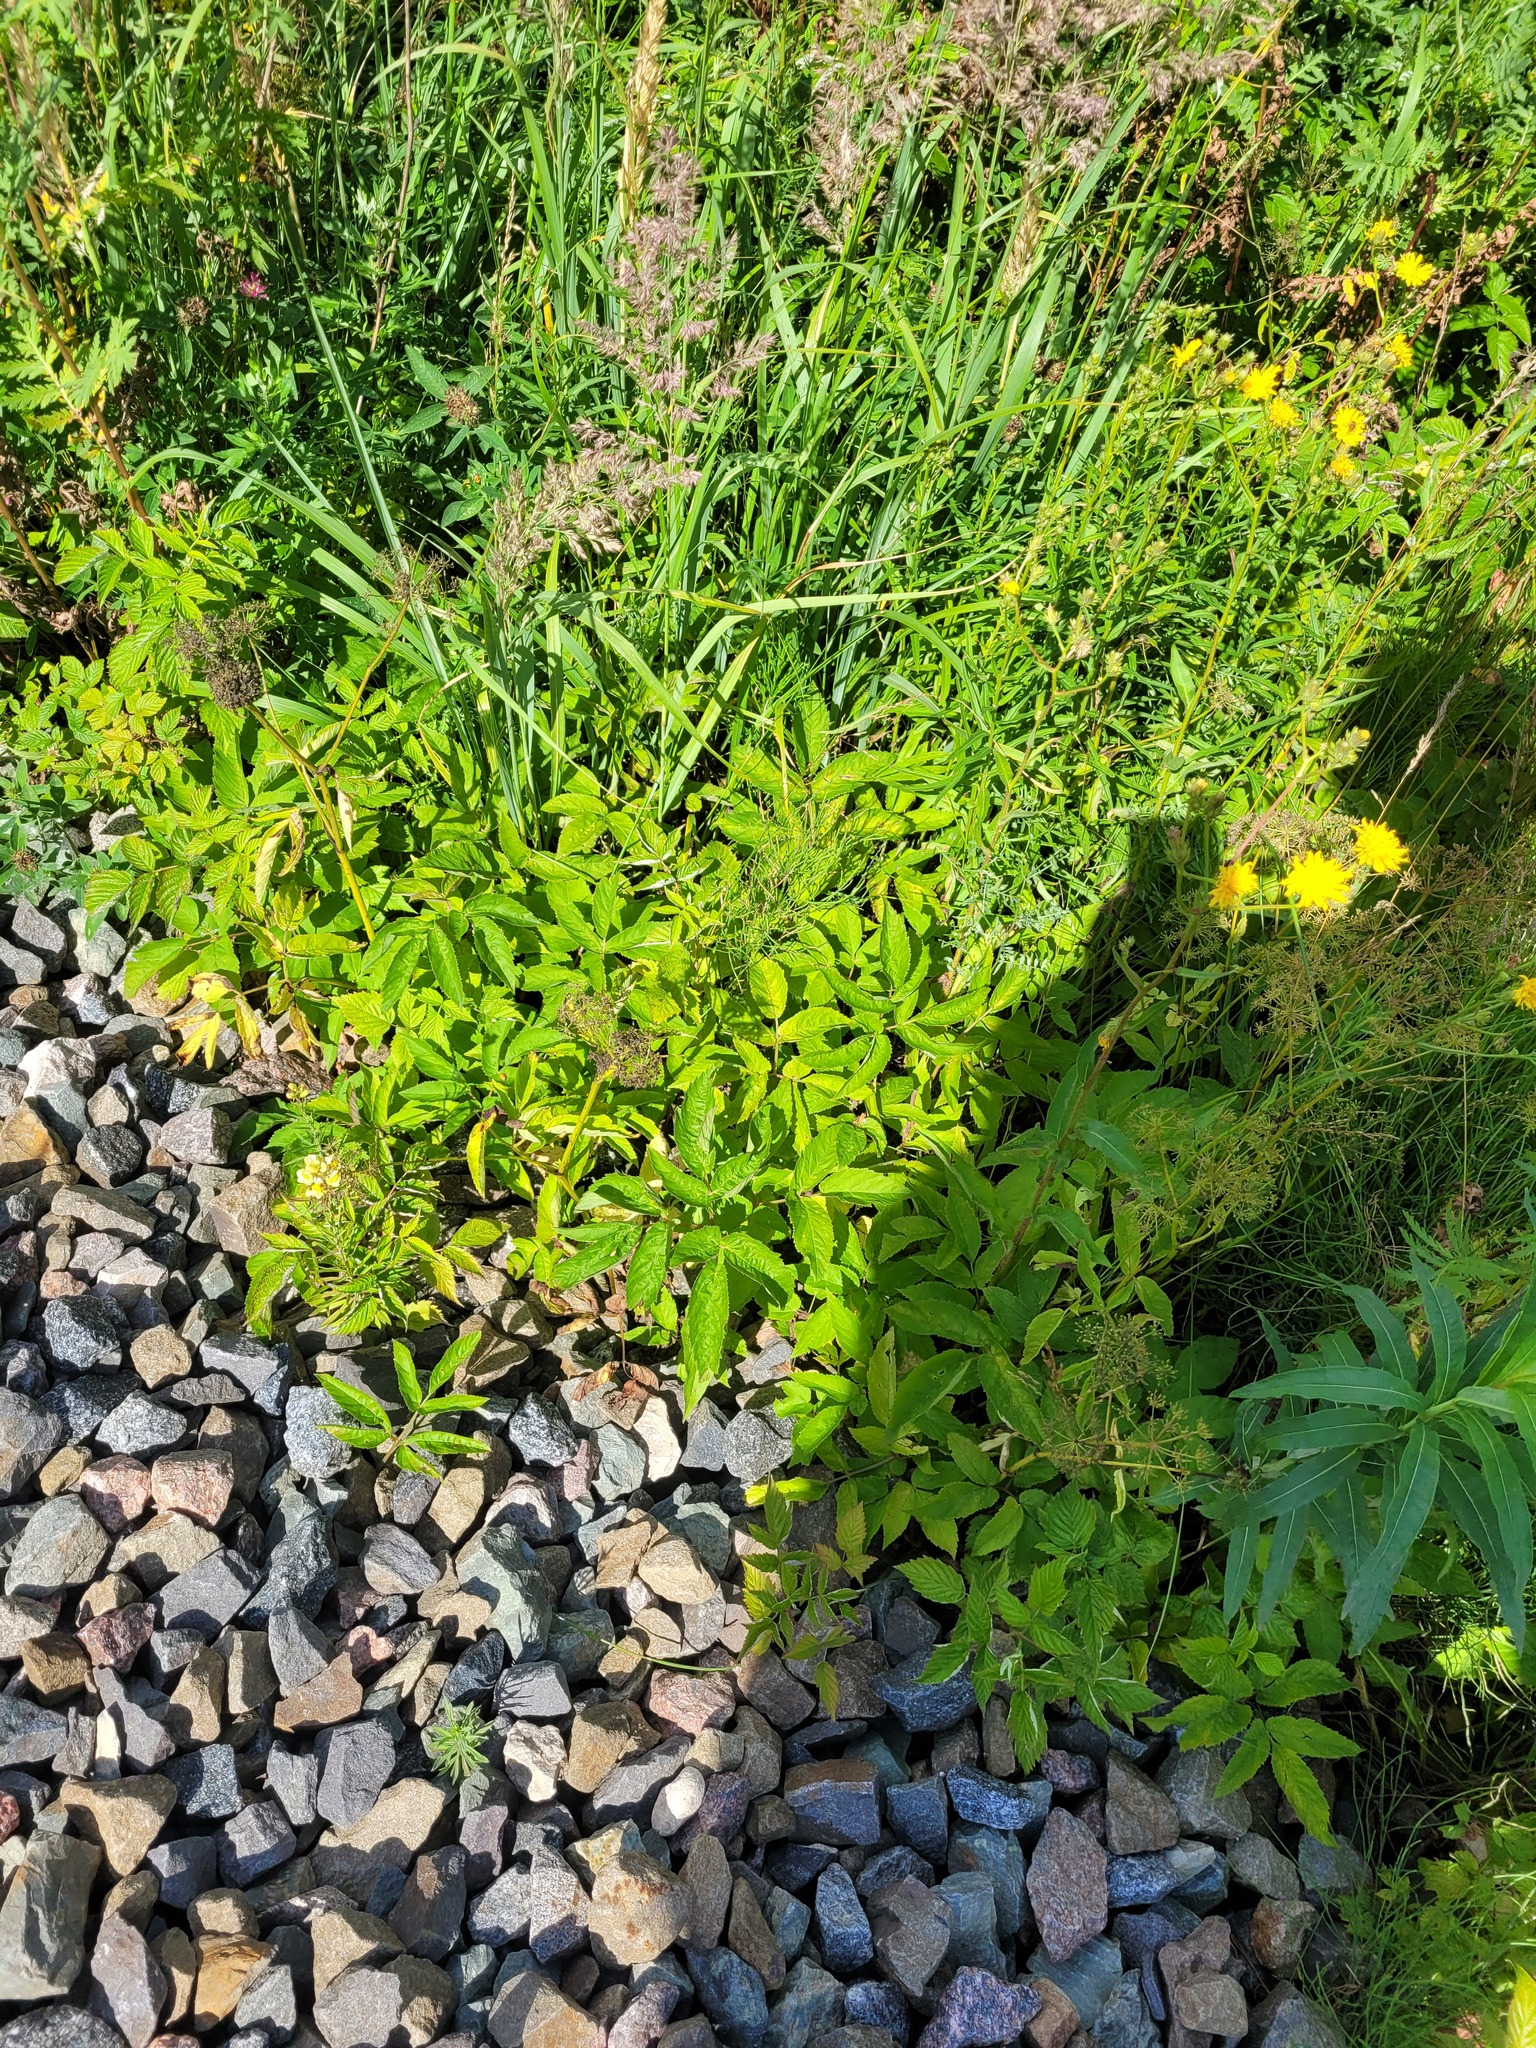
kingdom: Plantae
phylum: Tracheophyta
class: Magnoliopsida
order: Apiales
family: Apiaceae
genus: Aegopodium
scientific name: Aegopodium podagraria
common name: Ground-elder
